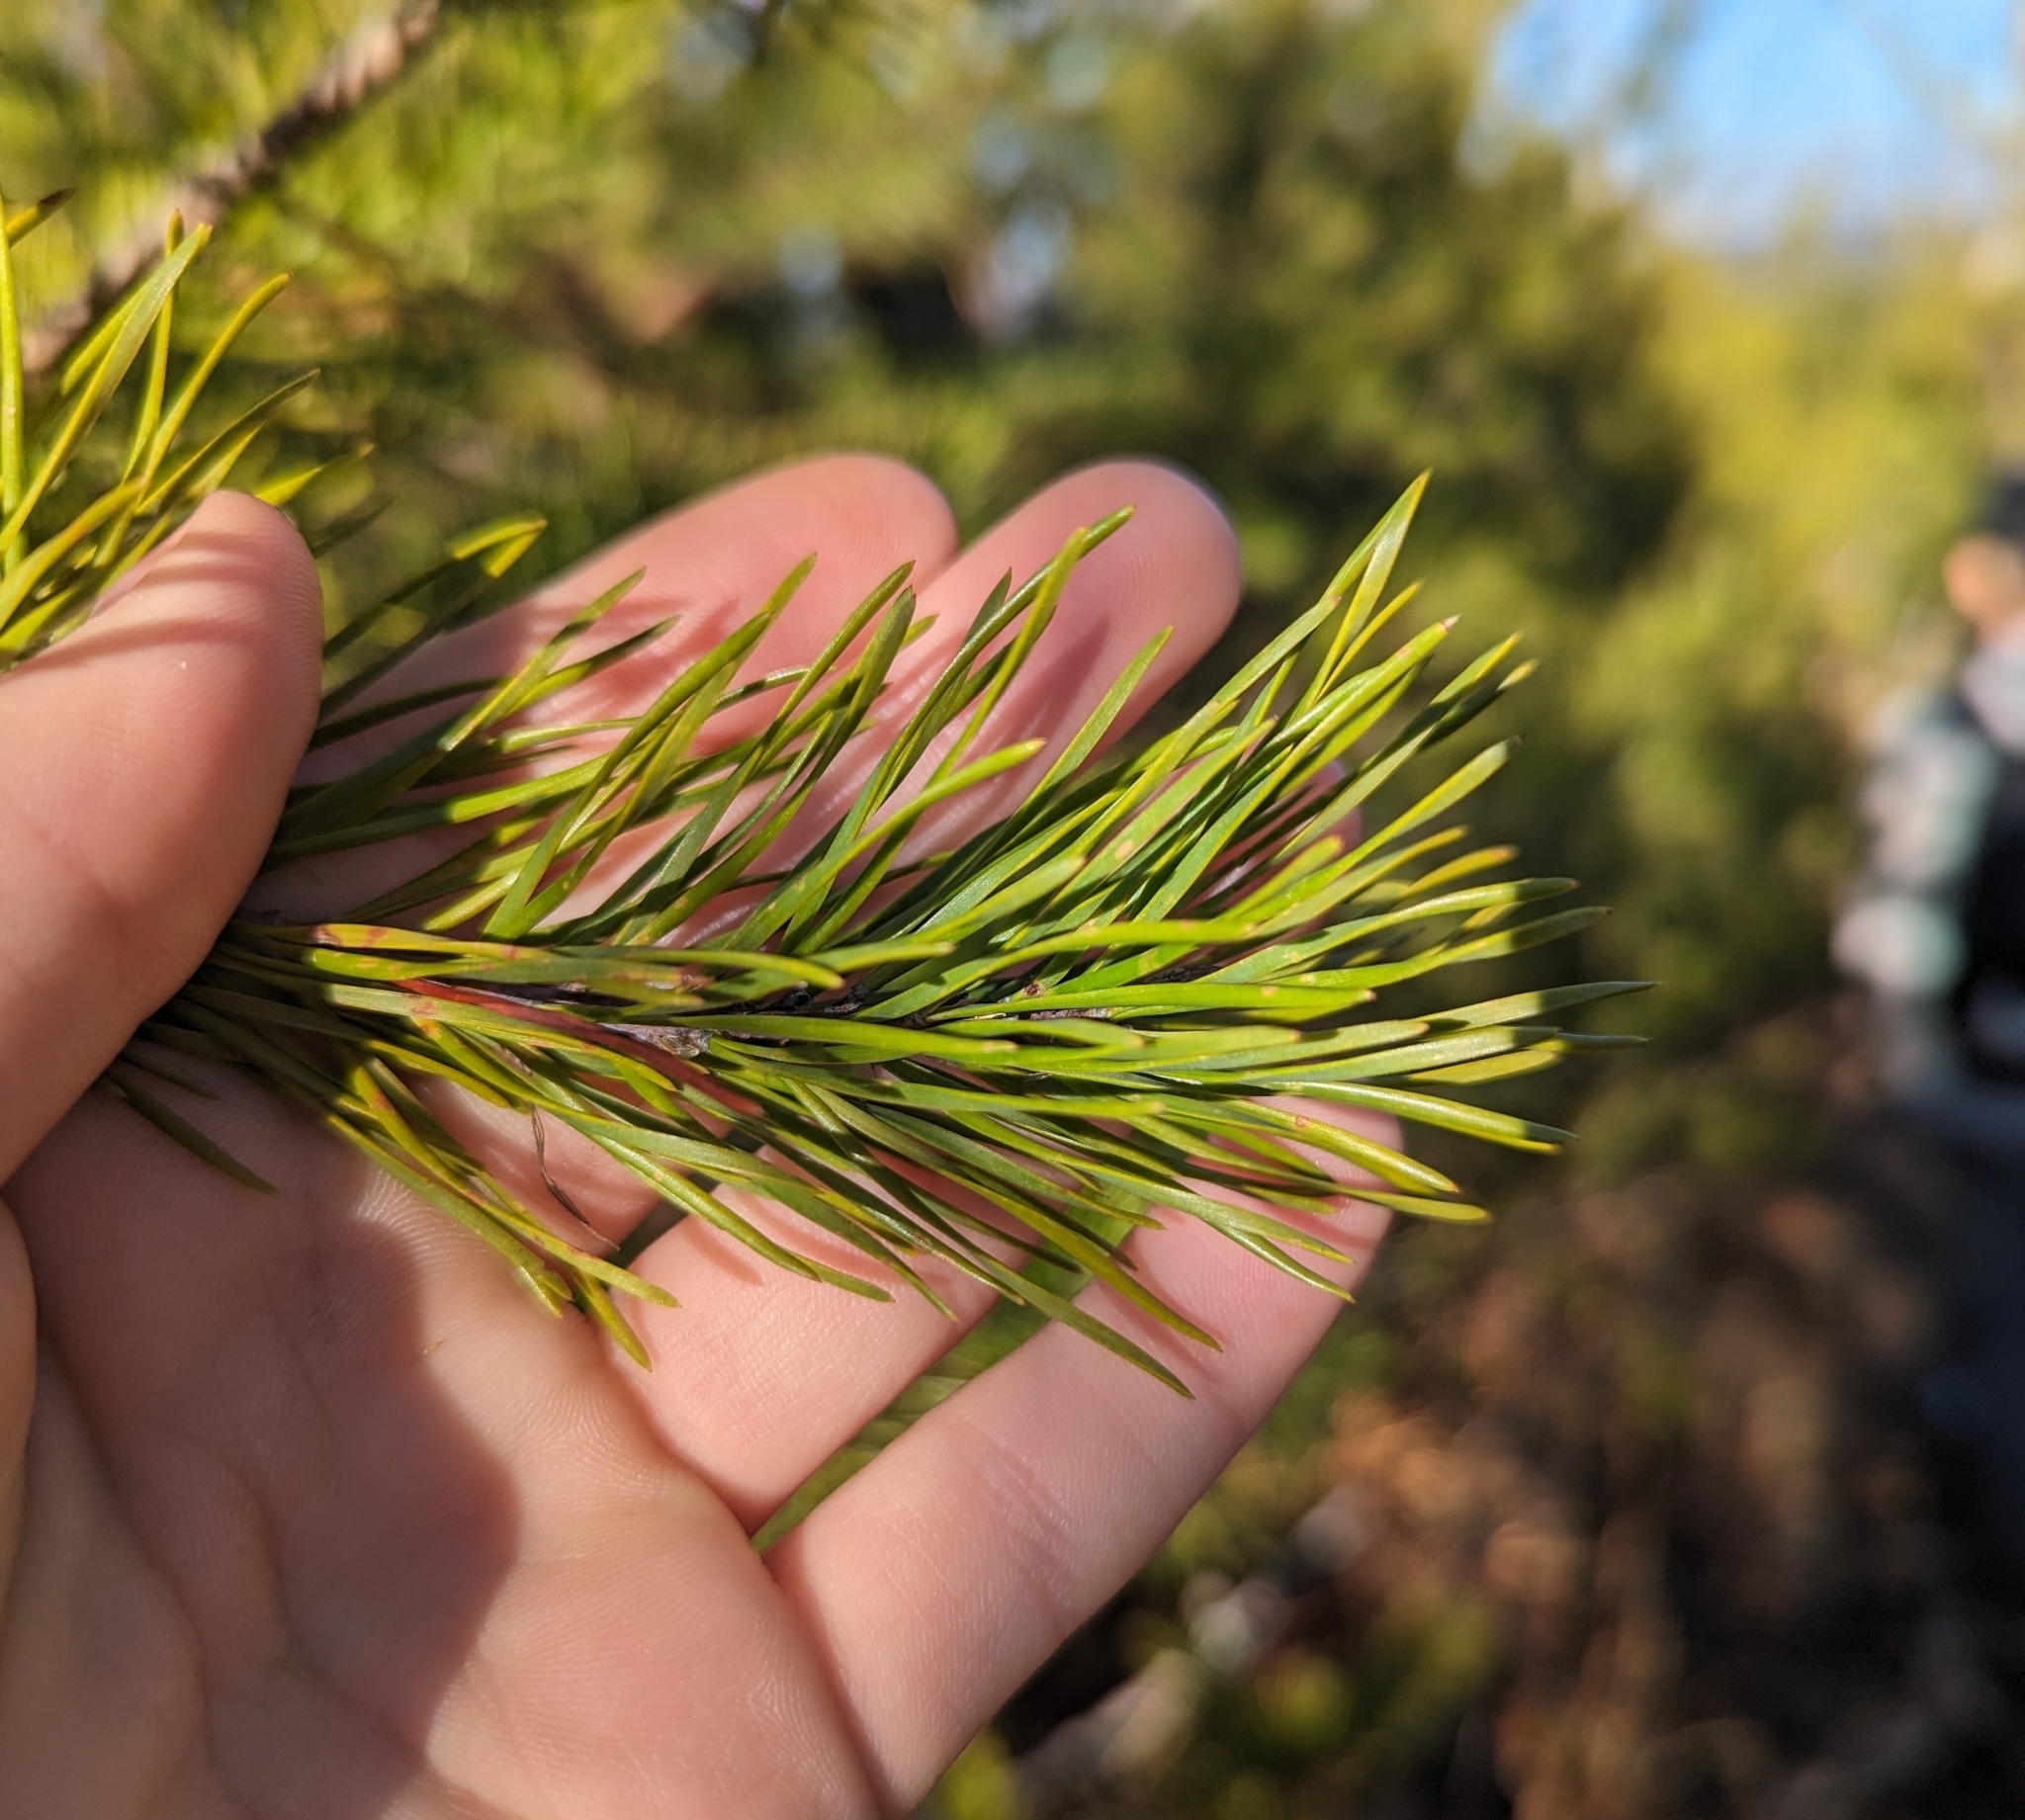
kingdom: Plantae
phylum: Tracheophyta
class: Pinopsida
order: Pinales
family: Pinaceae
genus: Pinus
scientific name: Pinus virginiana
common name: Scrub pine
